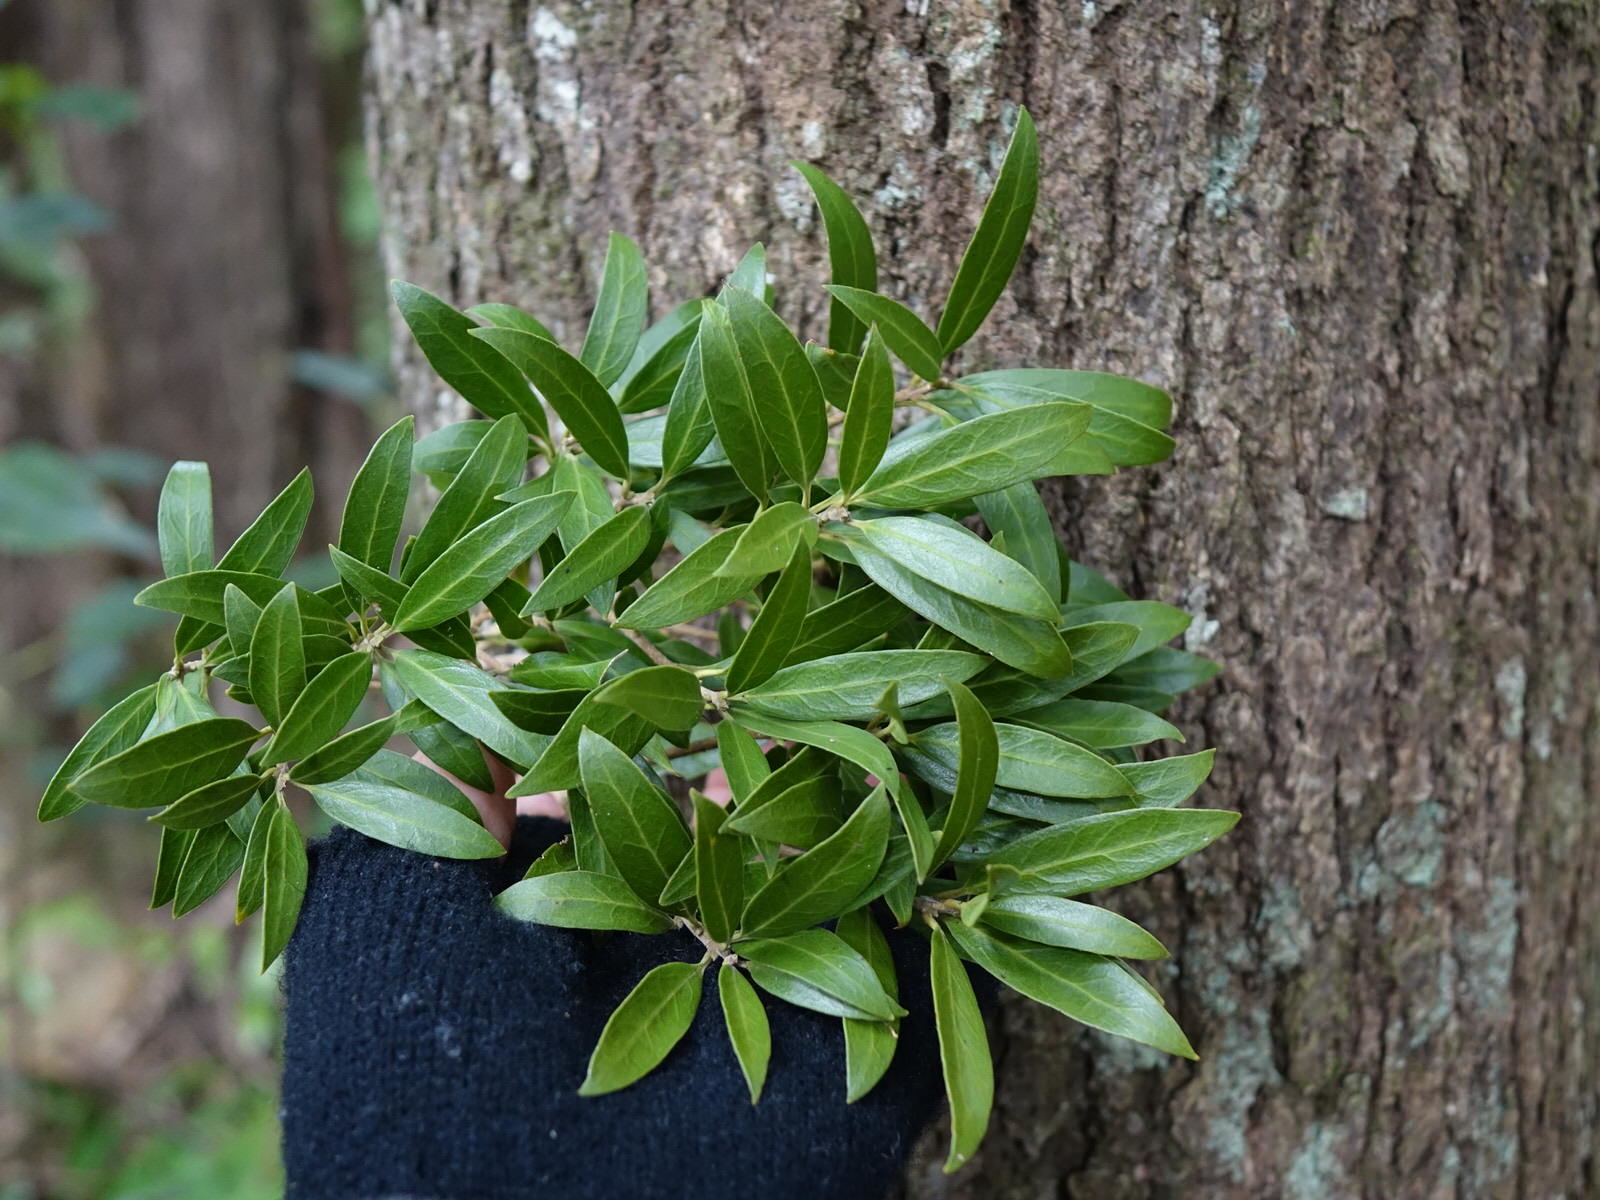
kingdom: Plantae
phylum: Tracheophyta
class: Magnoliopsida
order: Lamiales
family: Oleaceae
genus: Nestegis
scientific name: Nestegis lanceolata
